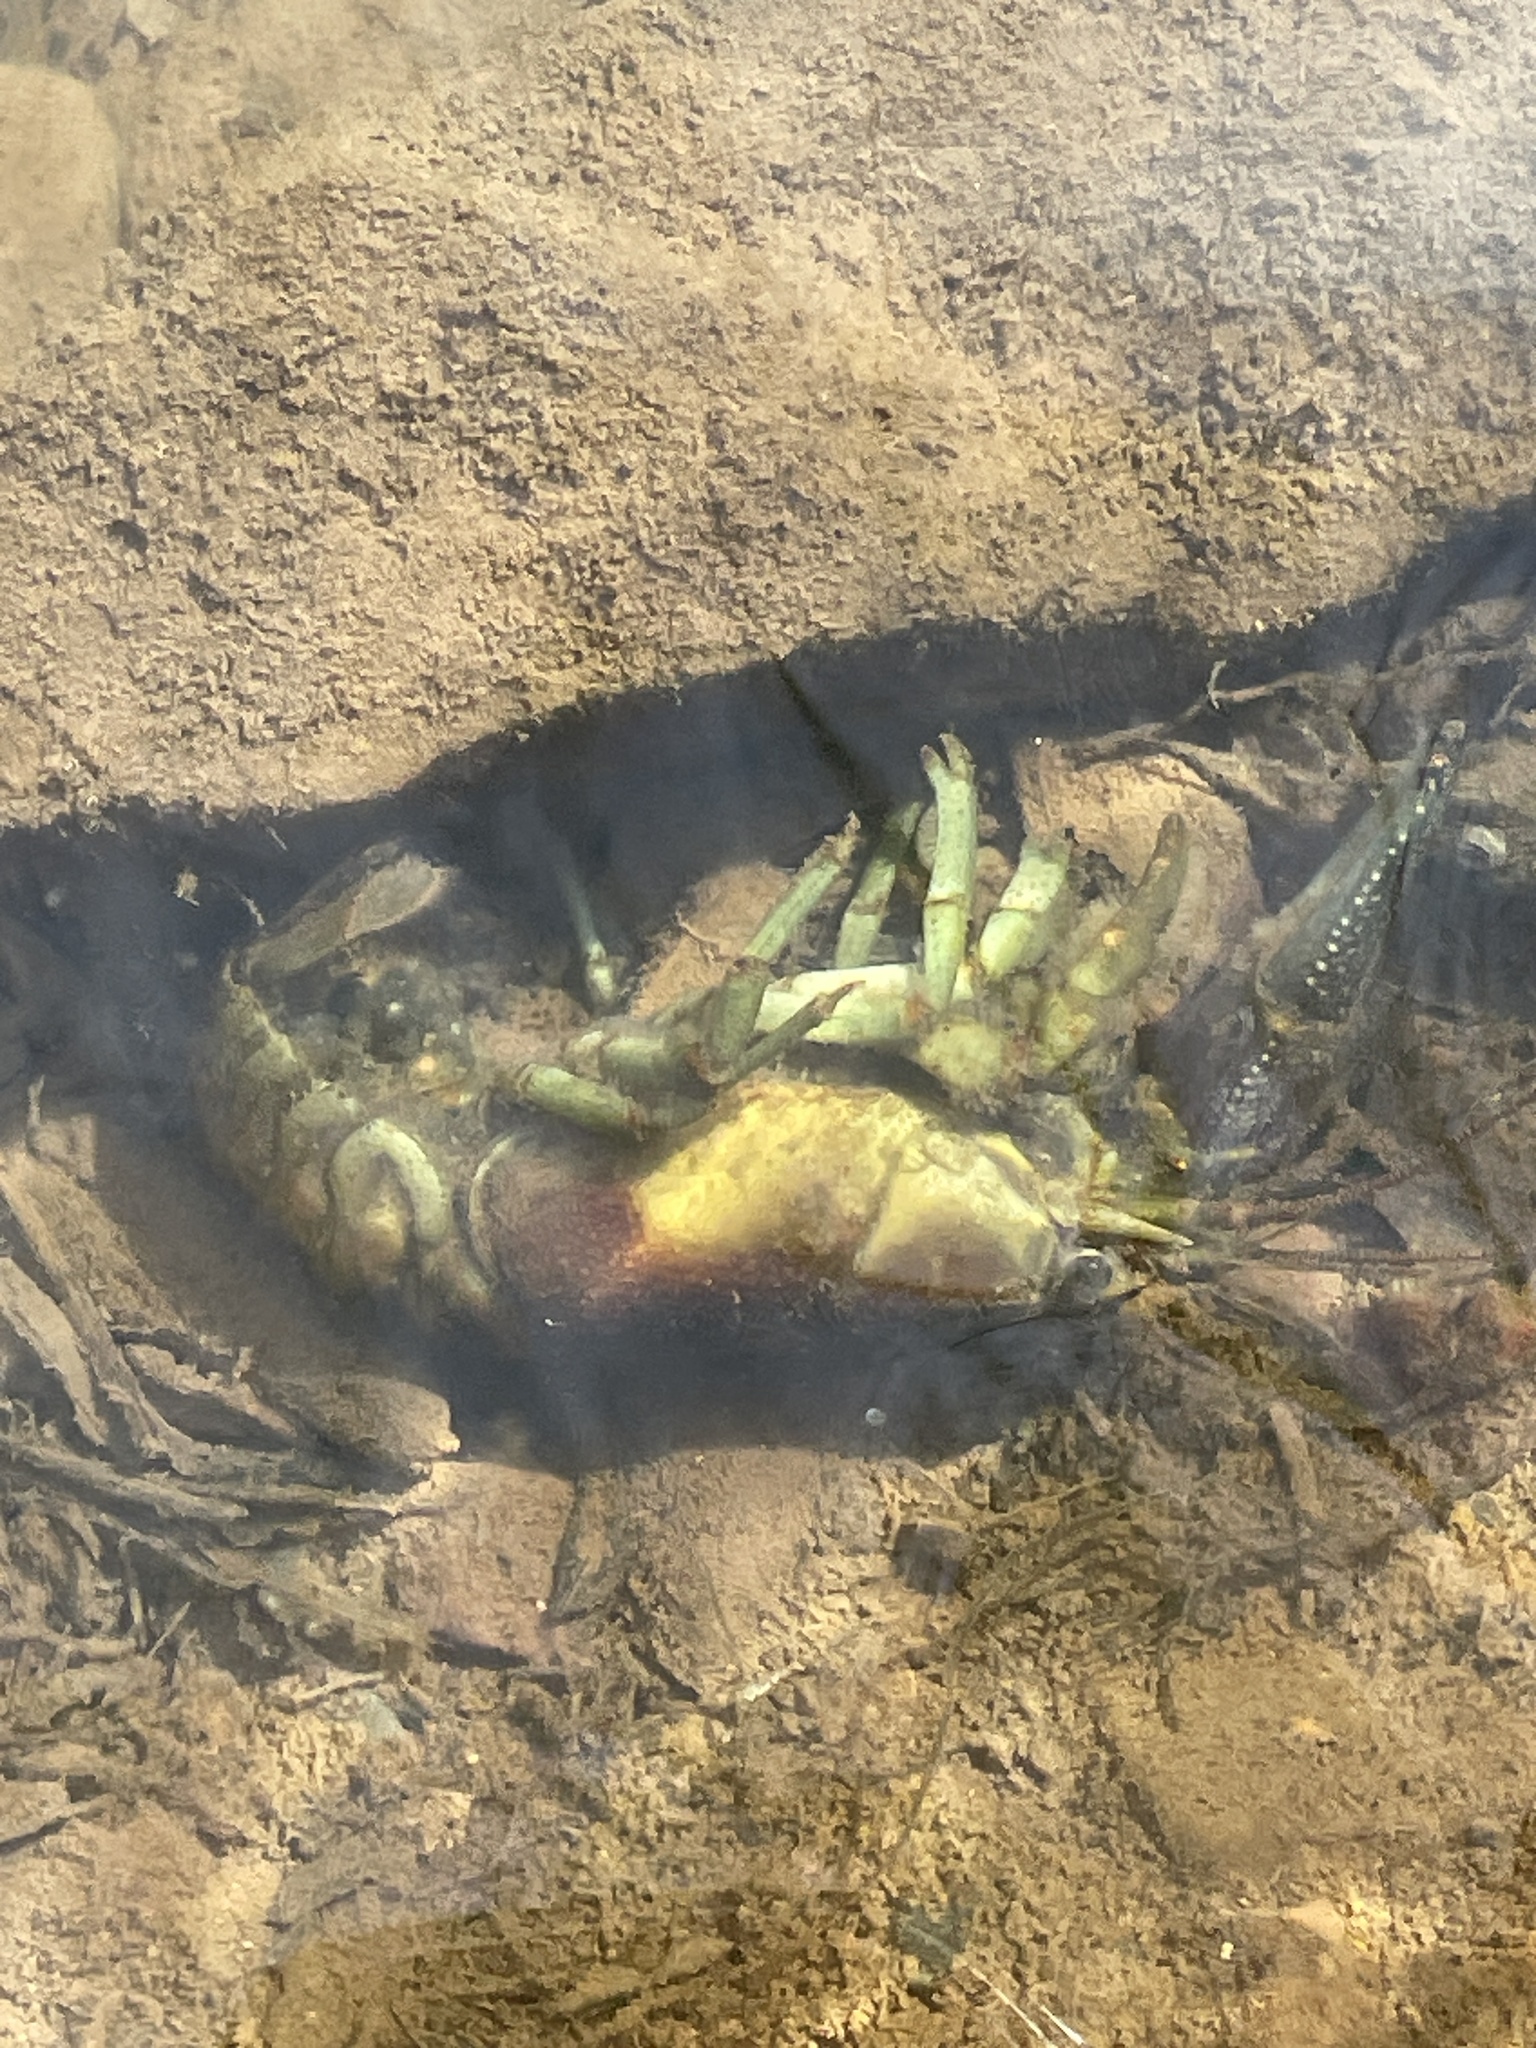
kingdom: Animalia
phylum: Arthropoda
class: Malacostraca
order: Decapoda
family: Cambaridae
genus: Faxonius
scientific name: Faxonius rusticus
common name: Rusty crayfish
